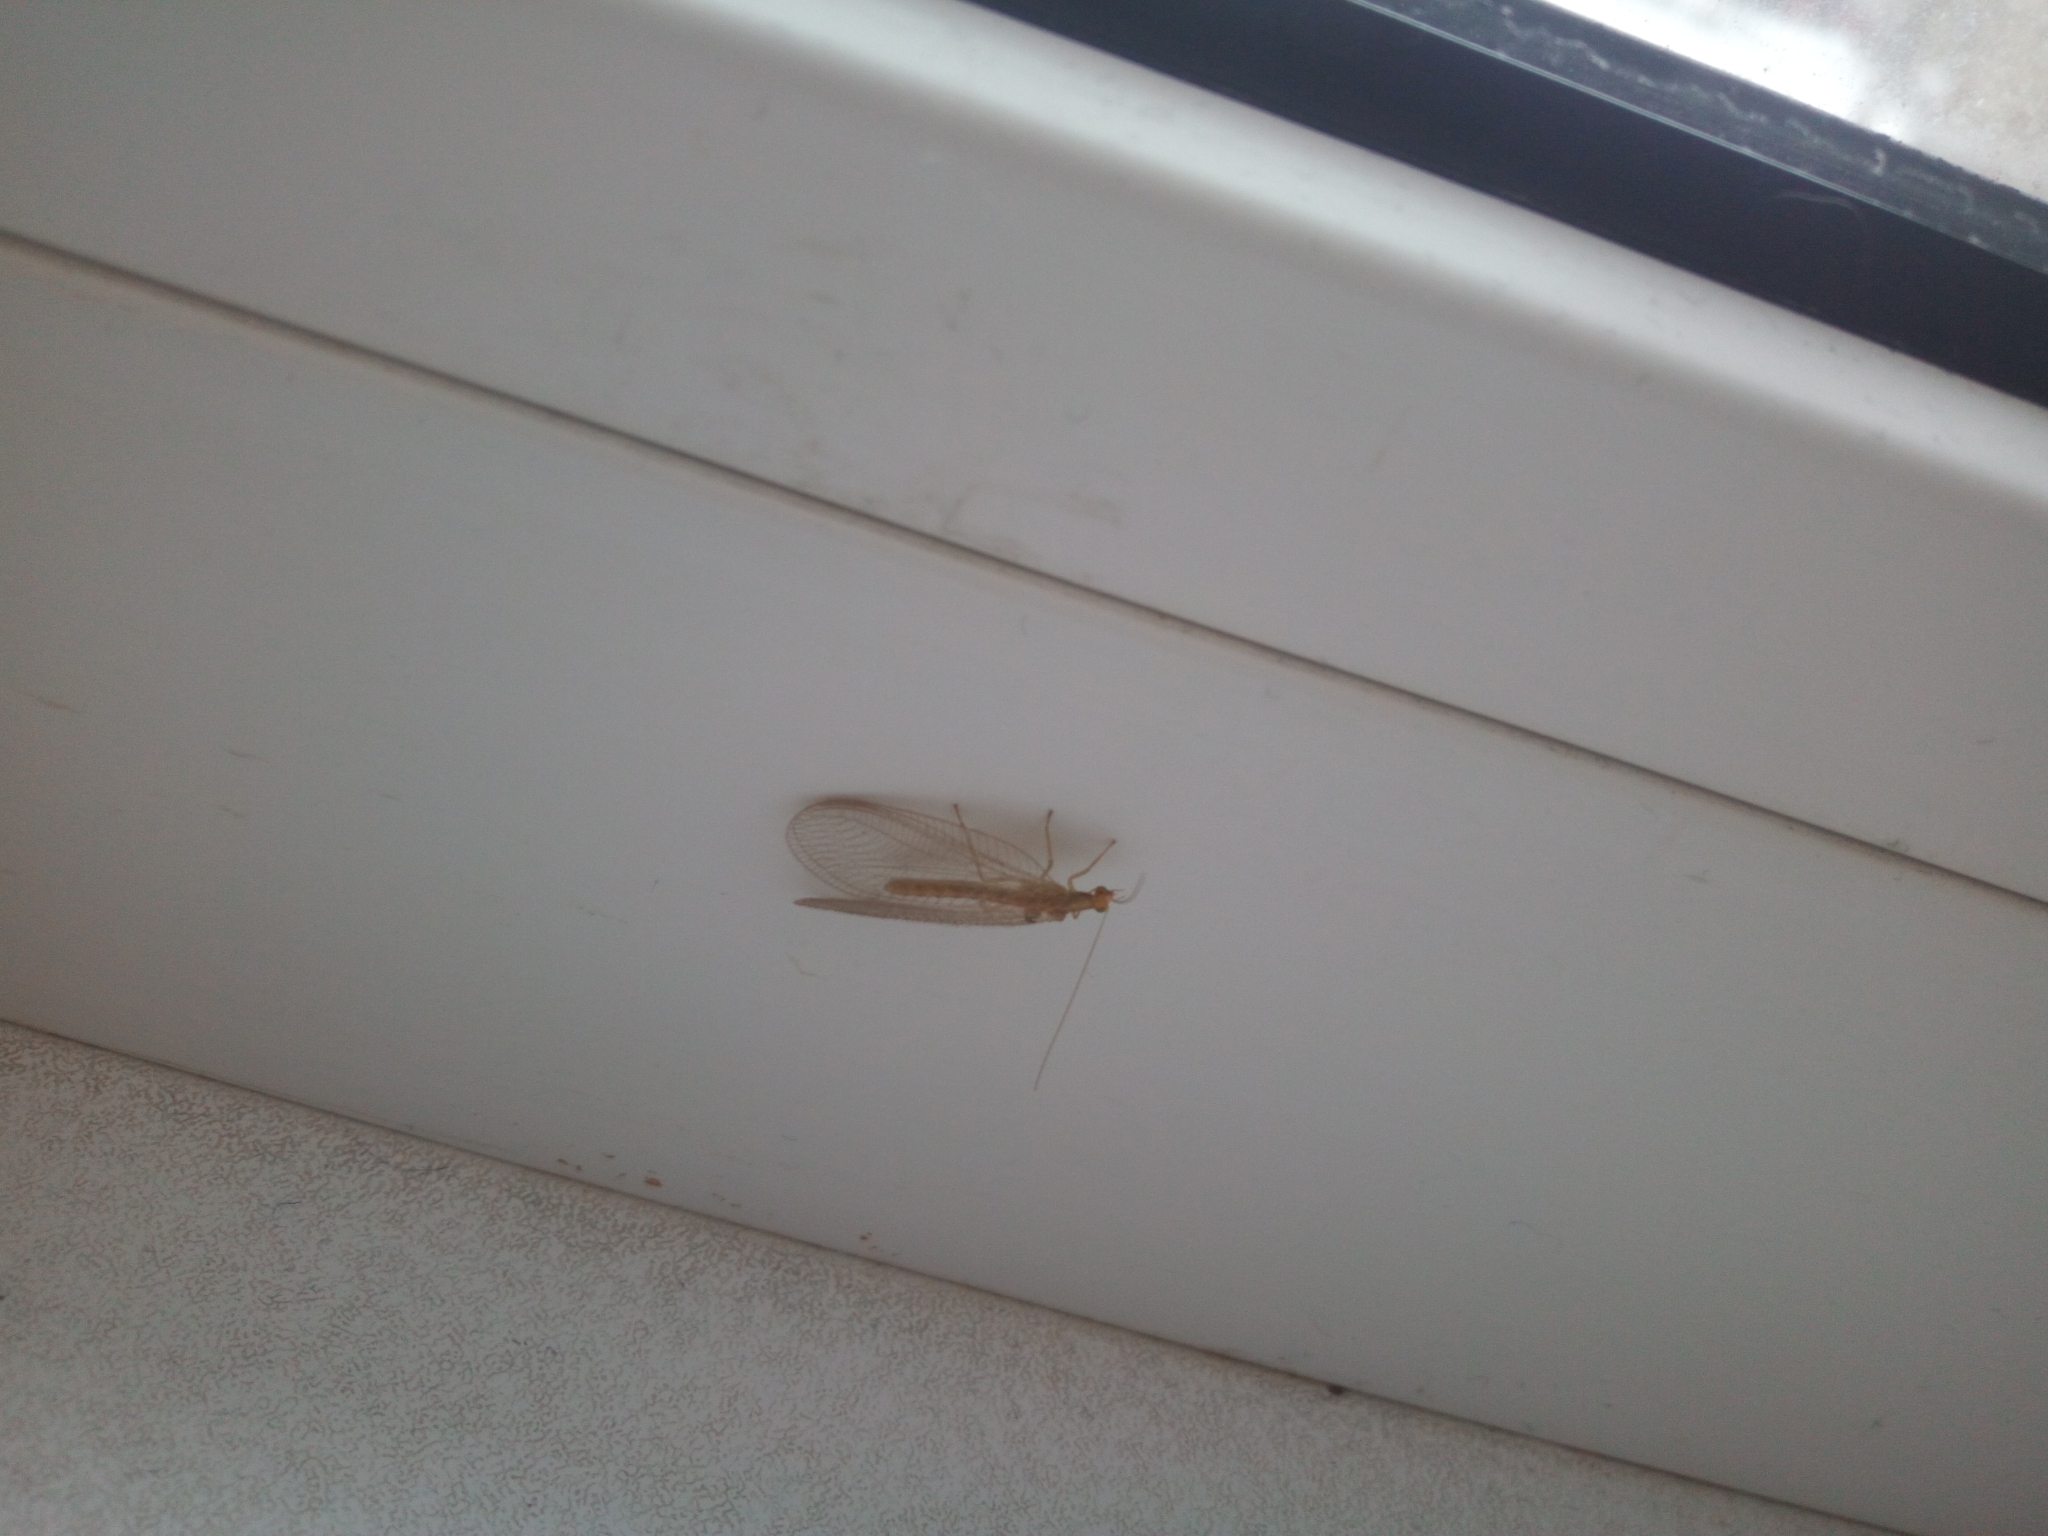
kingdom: Animalia
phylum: Arthropoda
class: Insecta
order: Neuroptera
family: Chrysopidae
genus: Chrysoperla
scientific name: Chrysoperla
